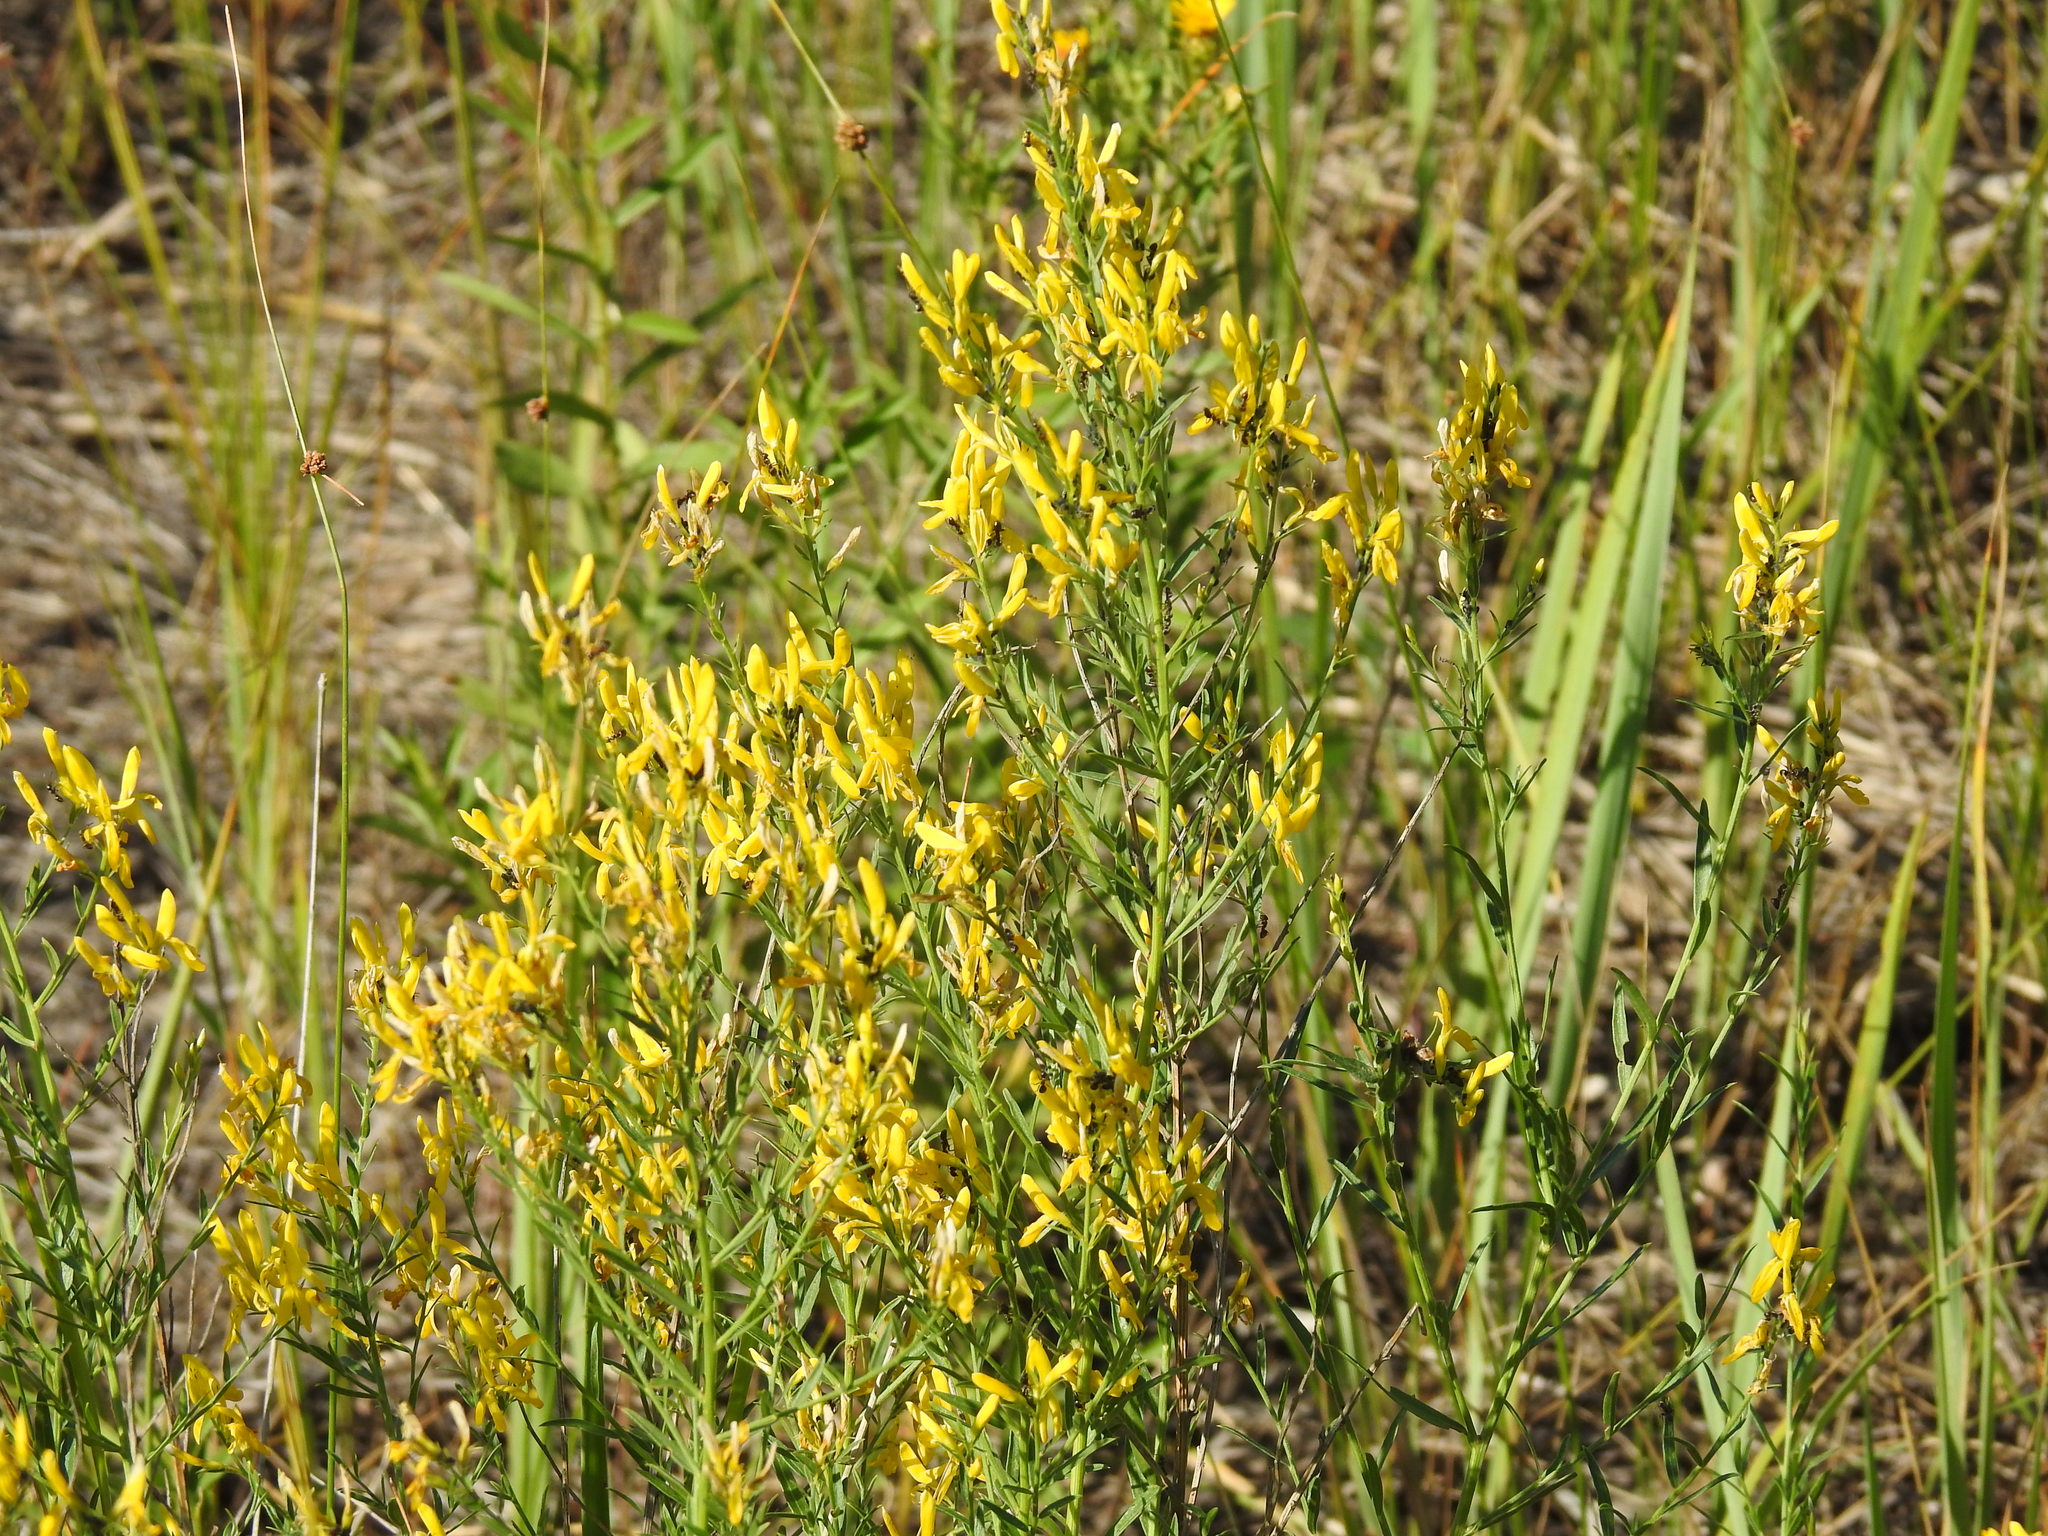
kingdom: Plantae
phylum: Tracheophyta
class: Magnoliopsida
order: Fabales
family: Fabaceae
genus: Genista
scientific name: Genista tinctoria
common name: Dyer's greenweed
